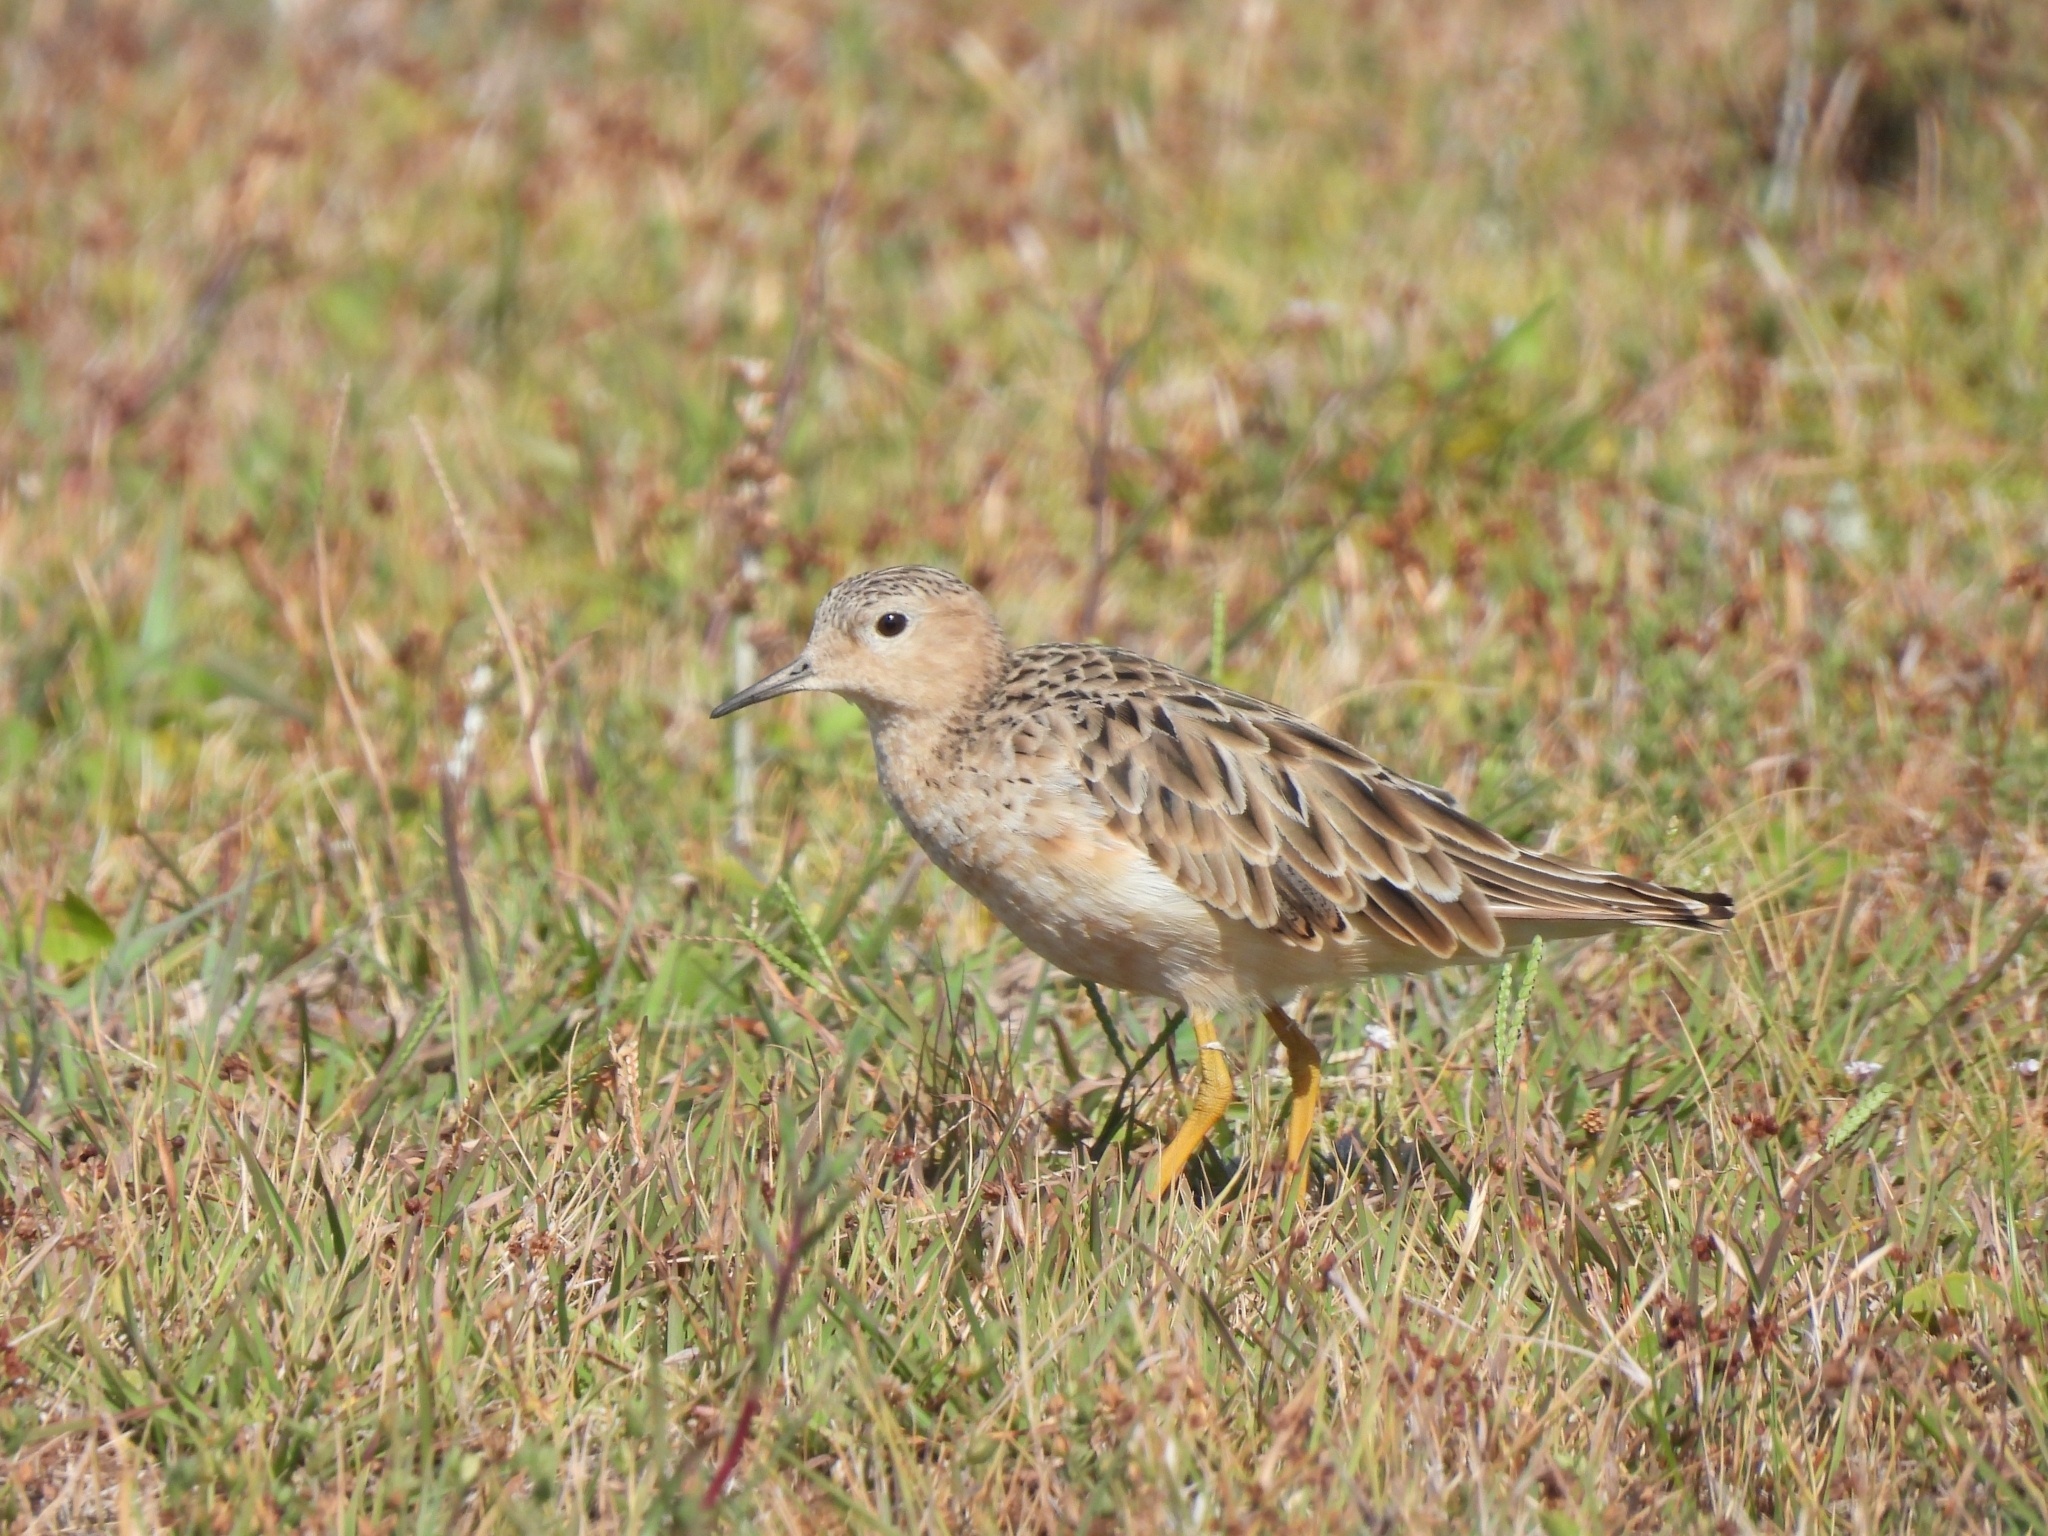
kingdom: Animalia
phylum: Chordata
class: Aves
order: Charadriiformes
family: Scolopacidae
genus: Calidris
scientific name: Calidris subruficollis
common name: Buff-breasted sandpiper
